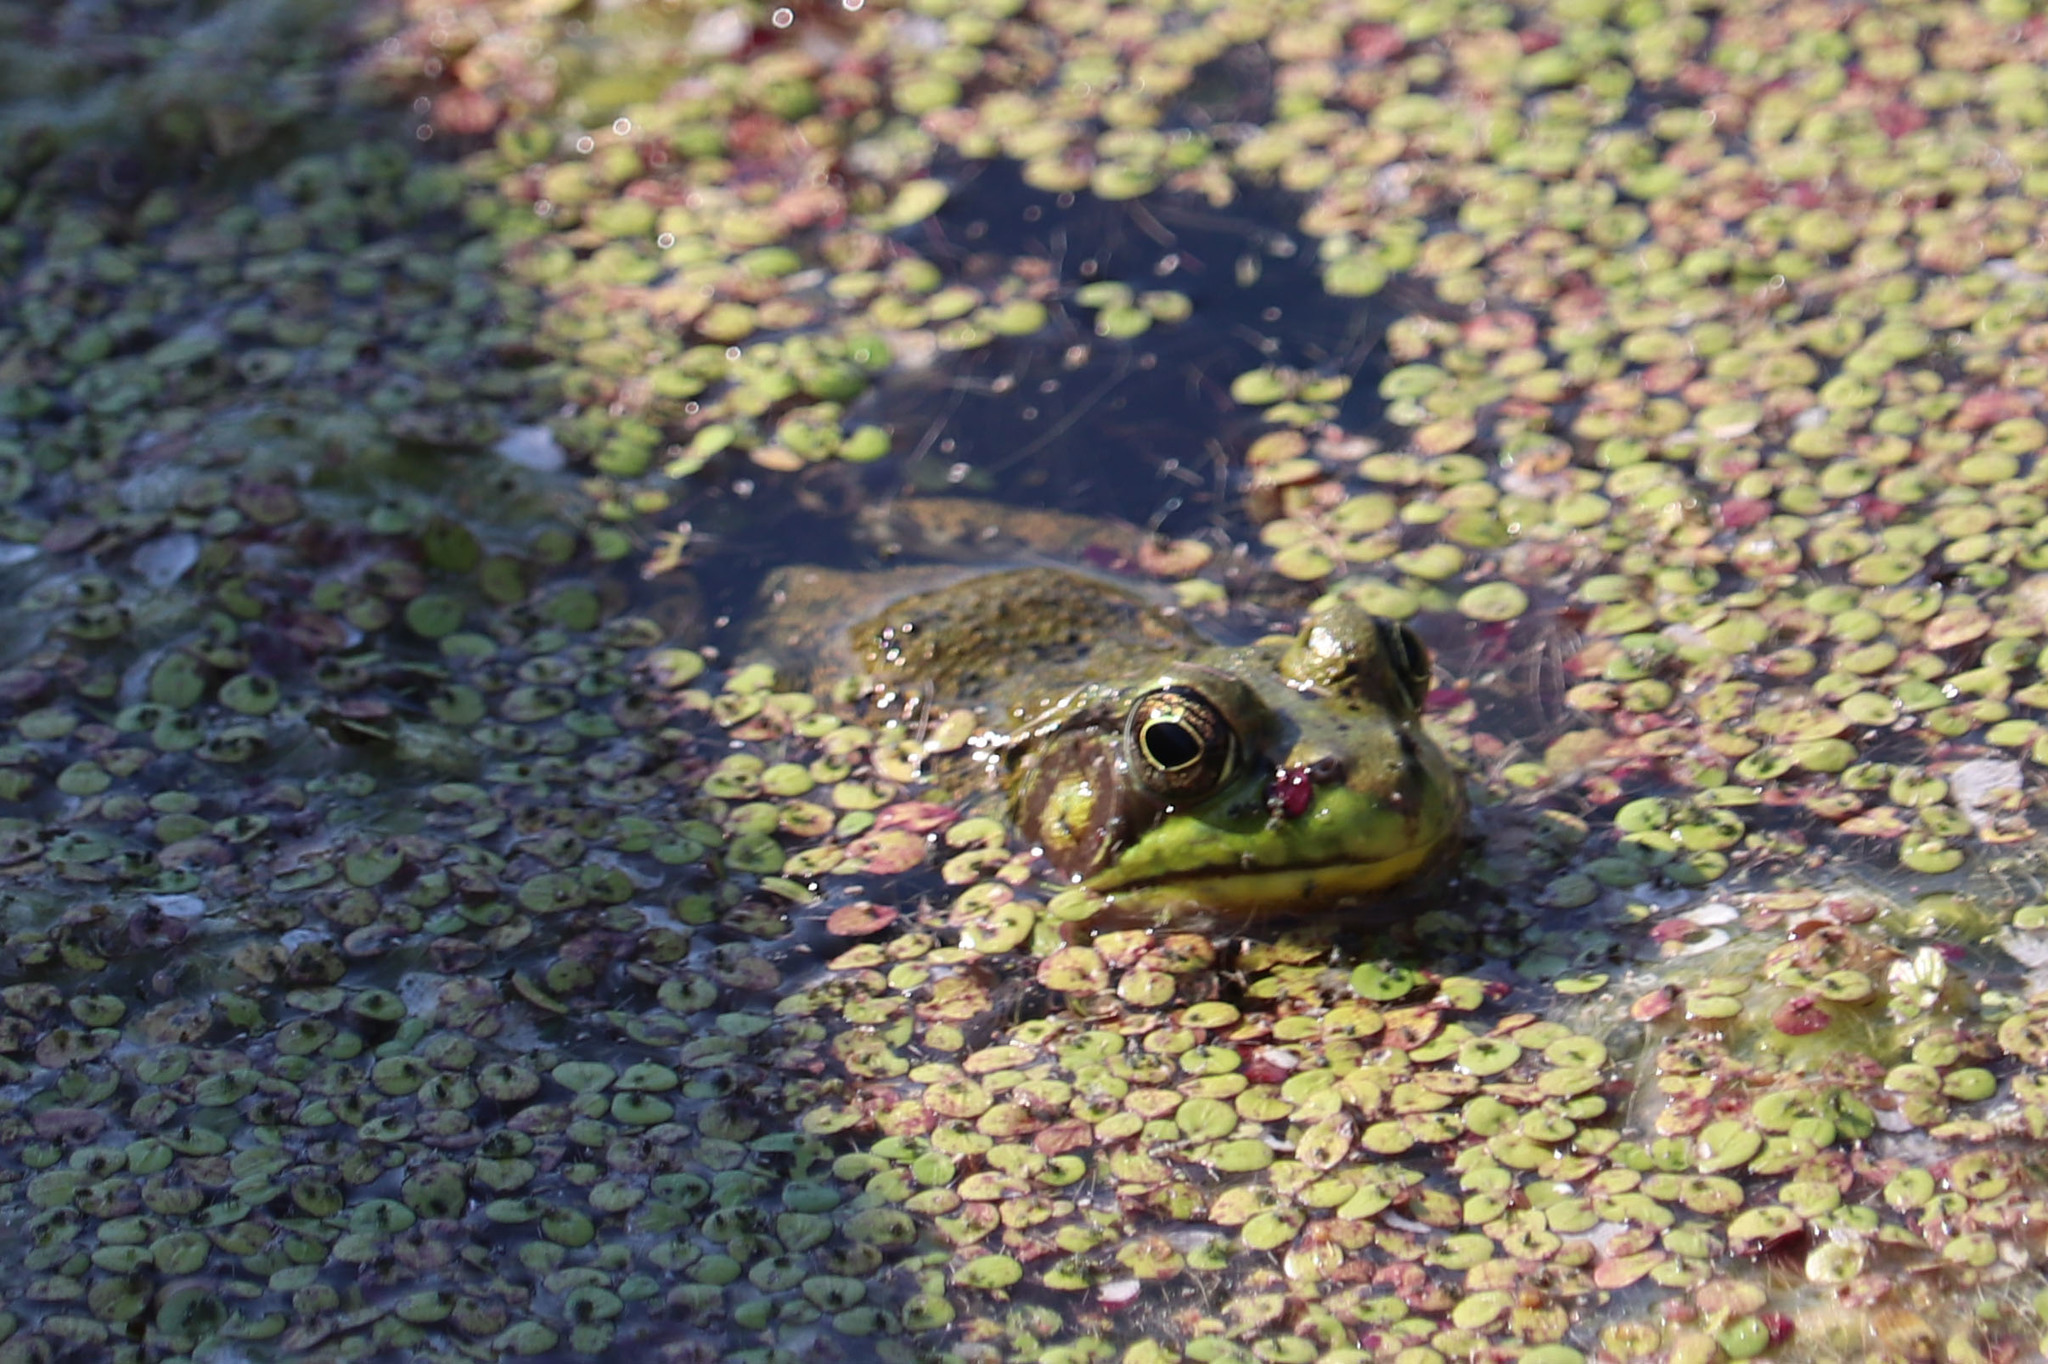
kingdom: Animalia
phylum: Chordata
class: Amphibia
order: Anura
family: Ranidae
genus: Lithobates
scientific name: Lithobates clamitans
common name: Green frog
